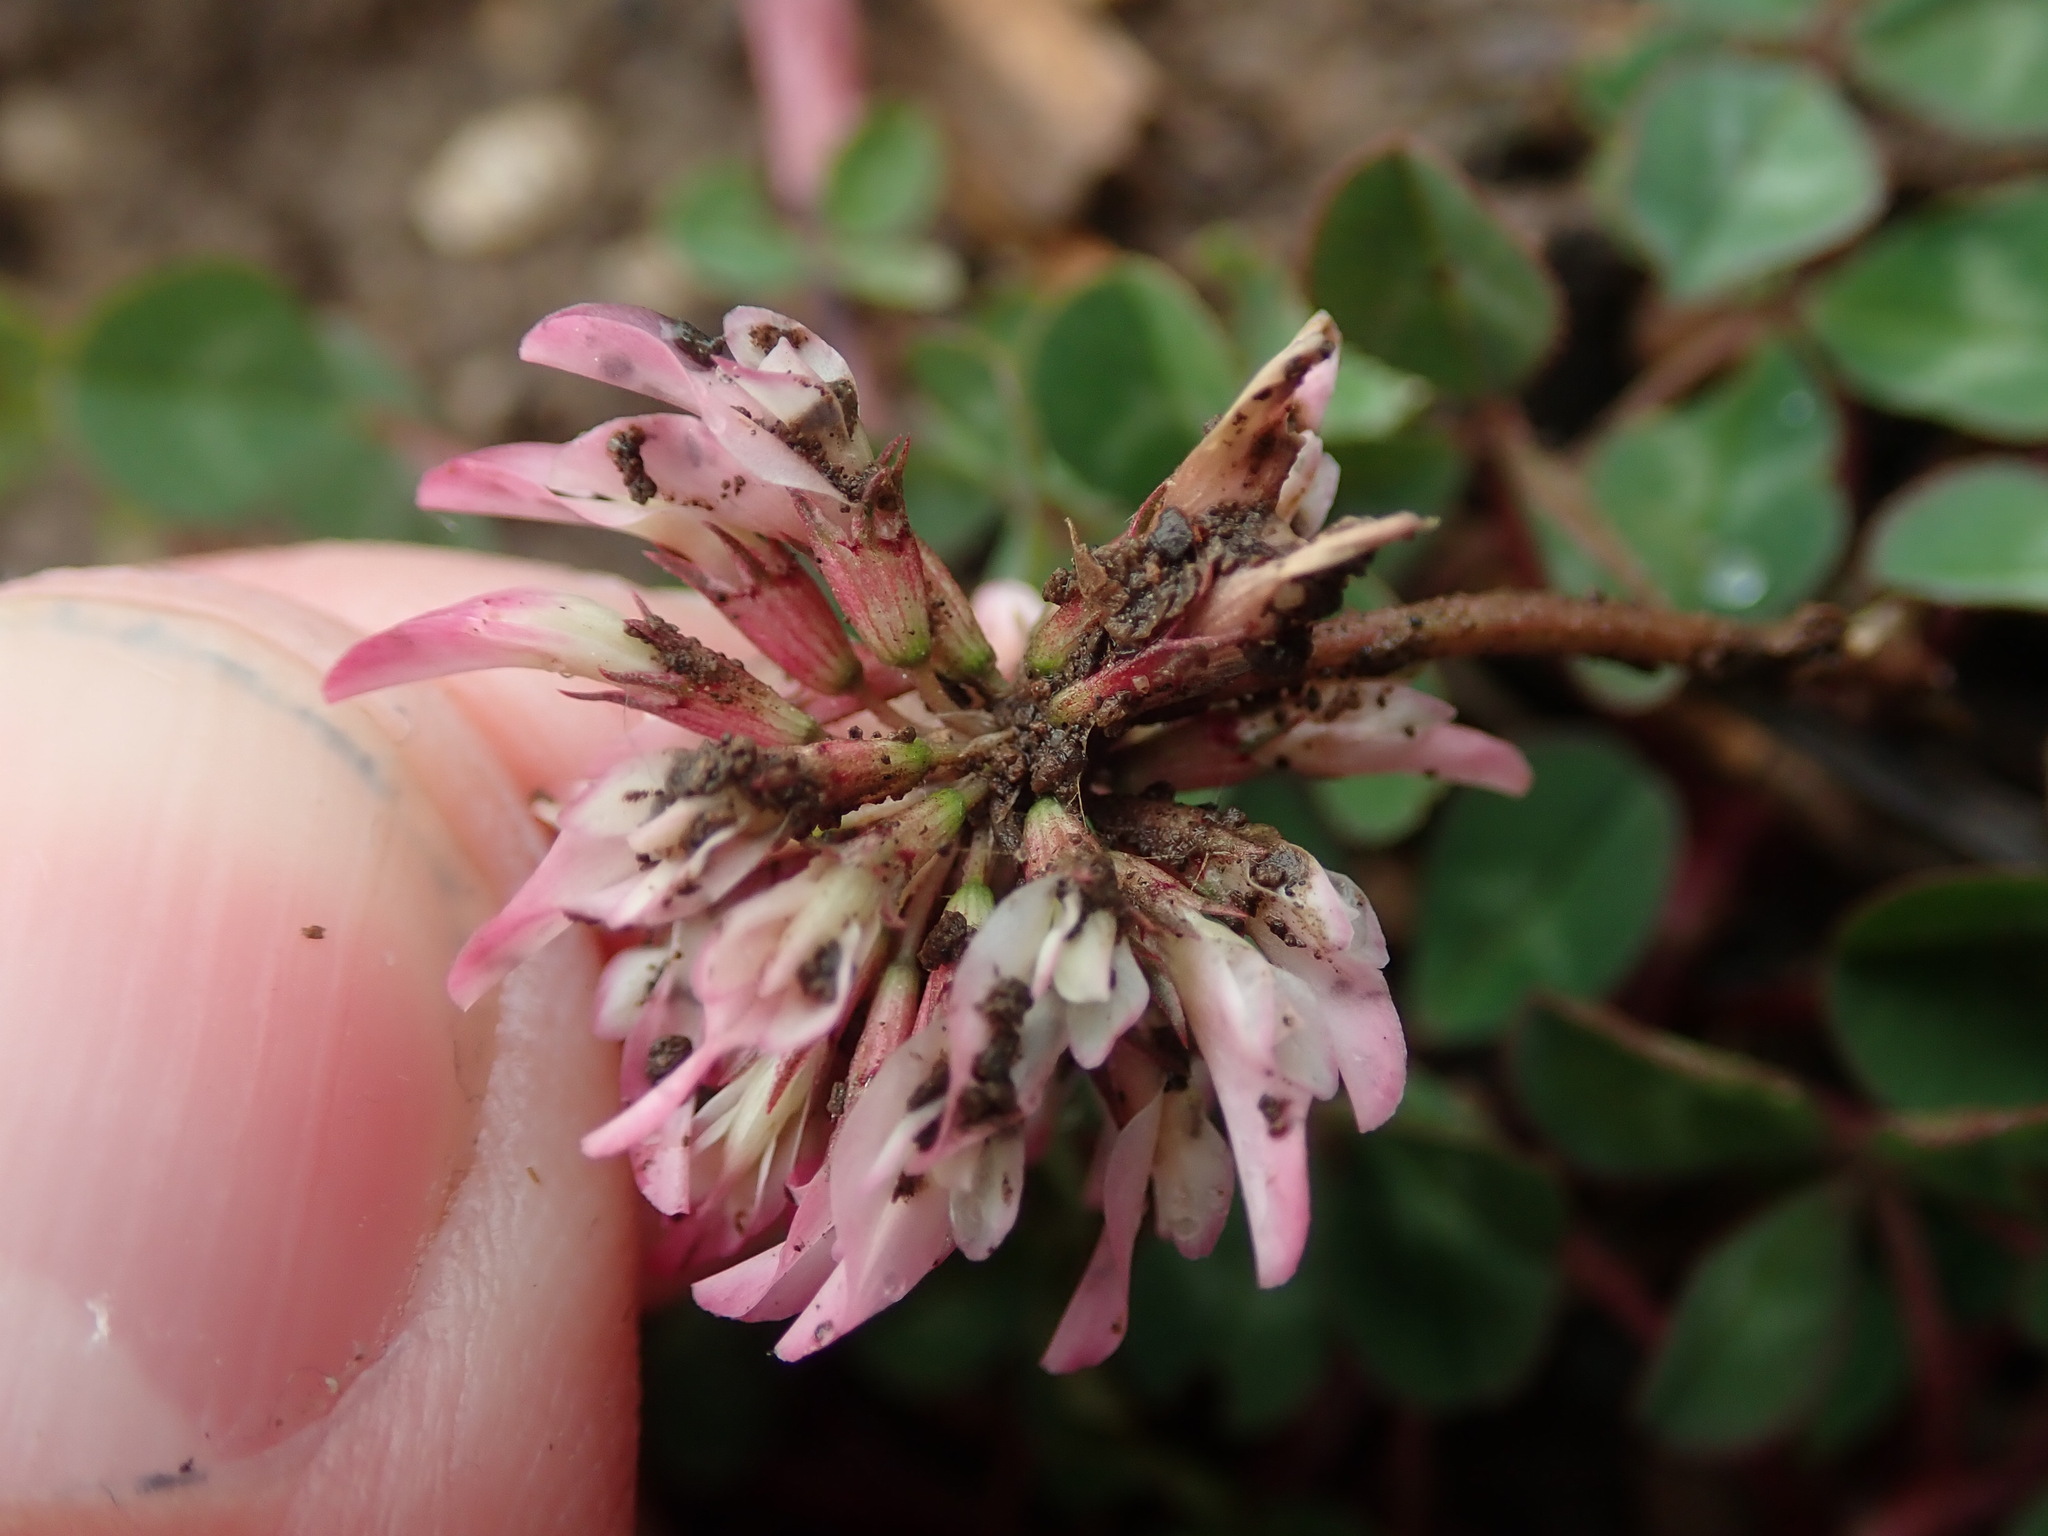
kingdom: Plantae
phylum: Tracheophyta
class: Magnoliopsida
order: Fabales
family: Fabaceae
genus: Trifolium
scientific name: Trifolium repens
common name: White clover
